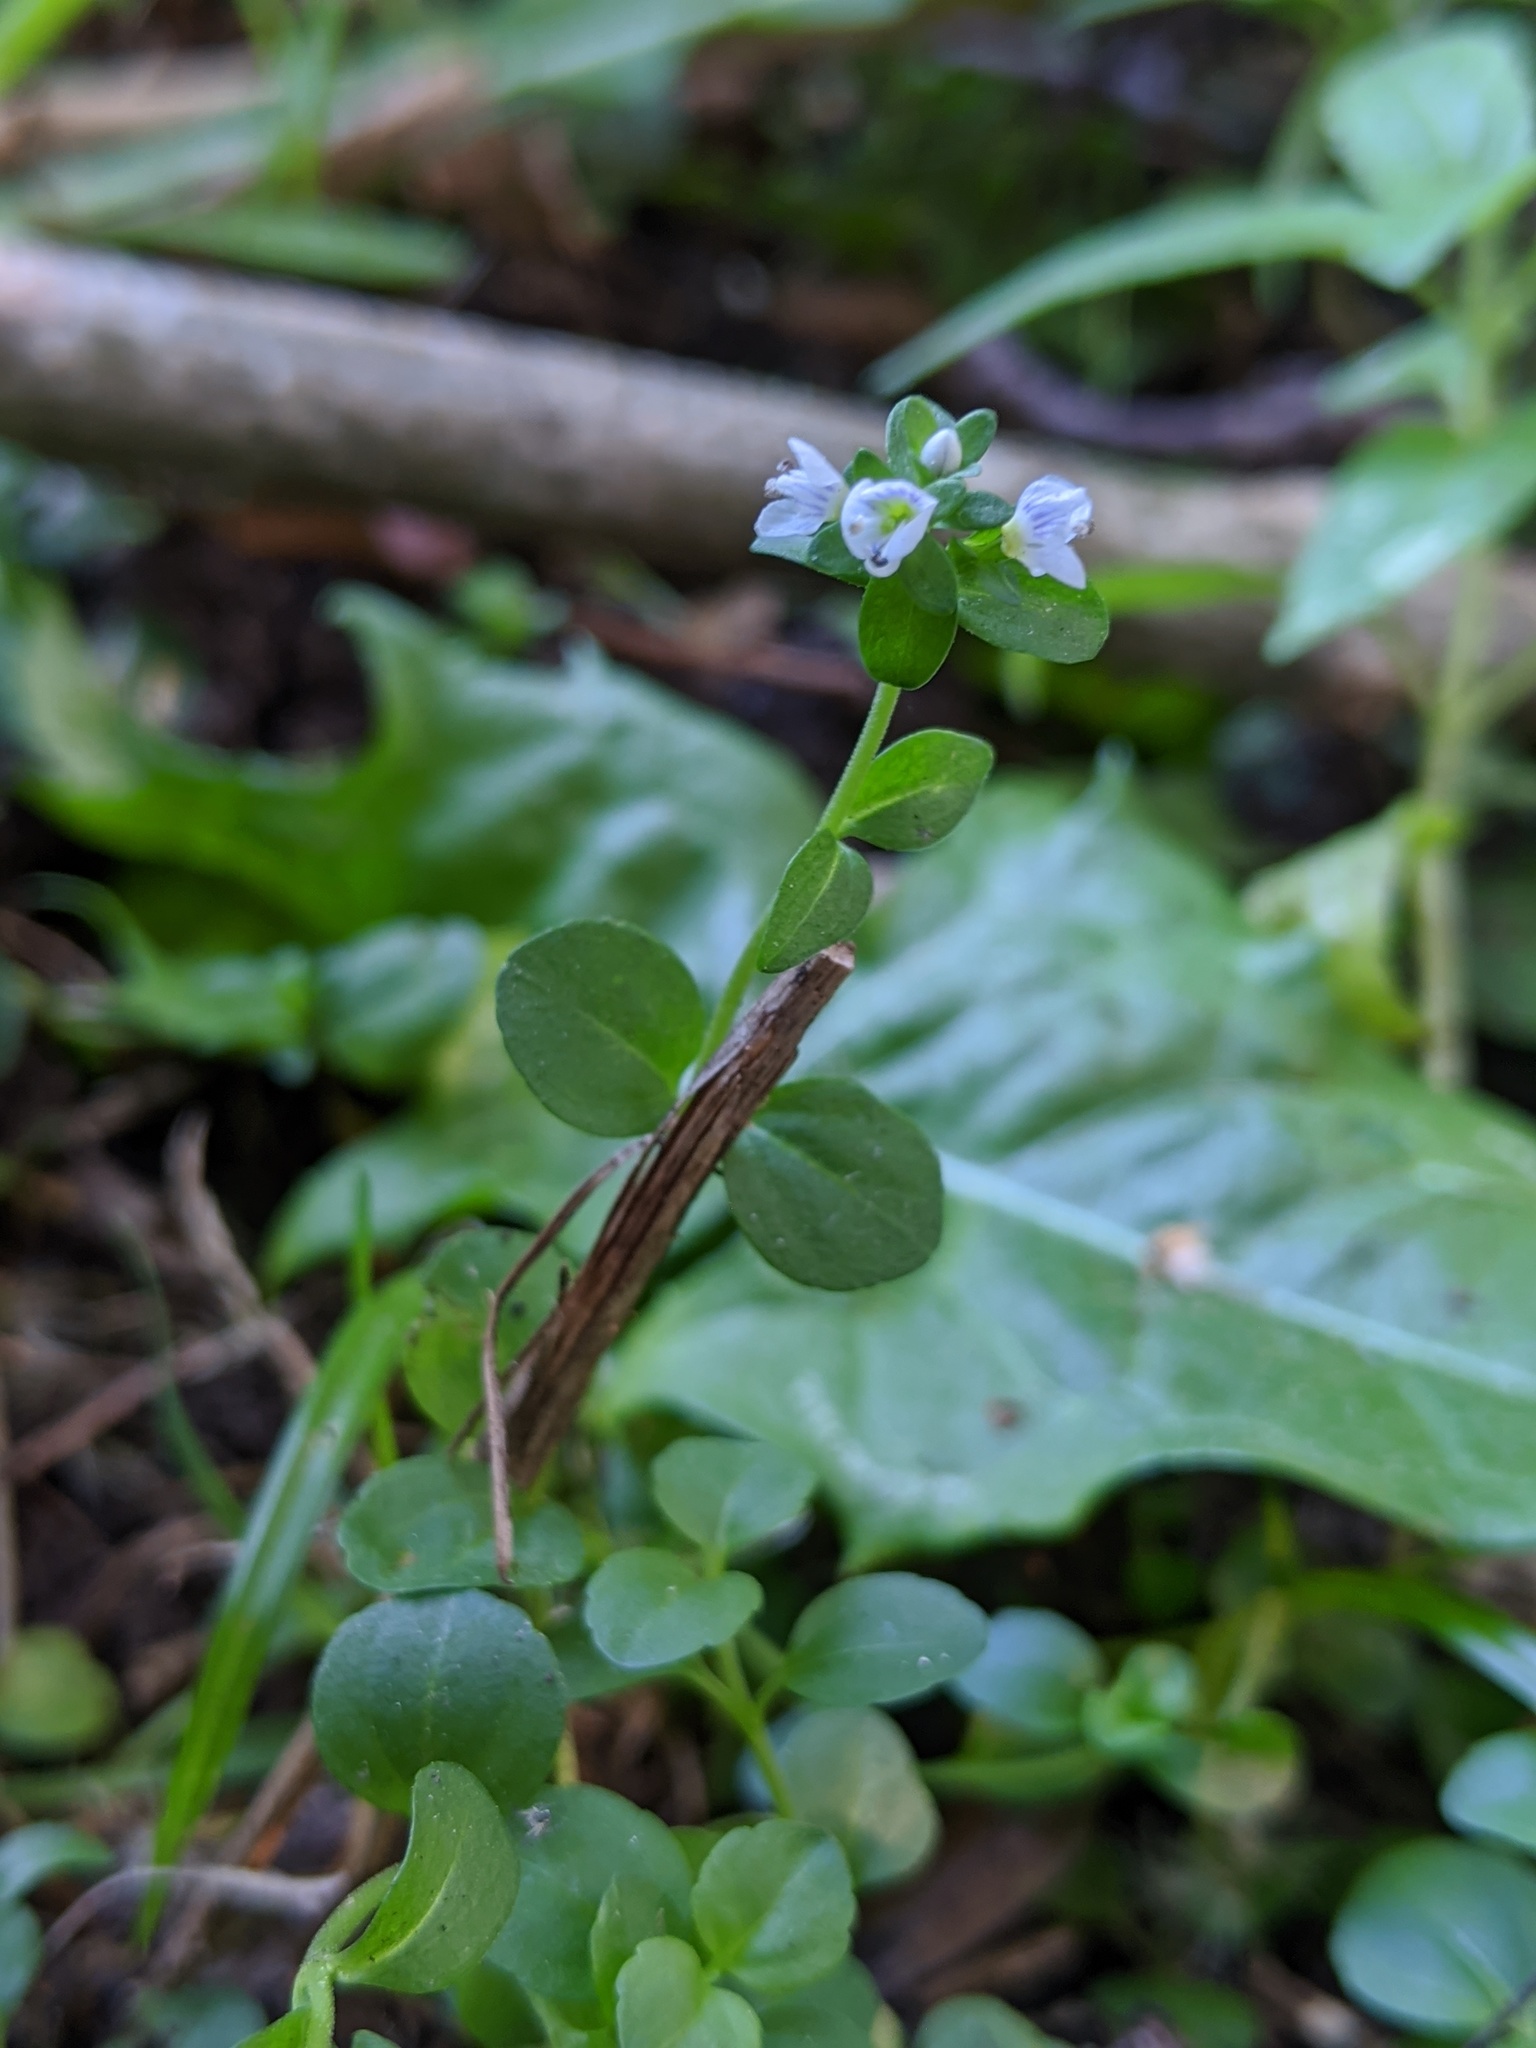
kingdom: Plantae
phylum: Tracheophyta
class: Magnoliopsida
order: Lamiales
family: Plantaginaceae
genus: Veronica
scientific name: Veronica serpyllifolia
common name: Thyme-leaved speedwell
